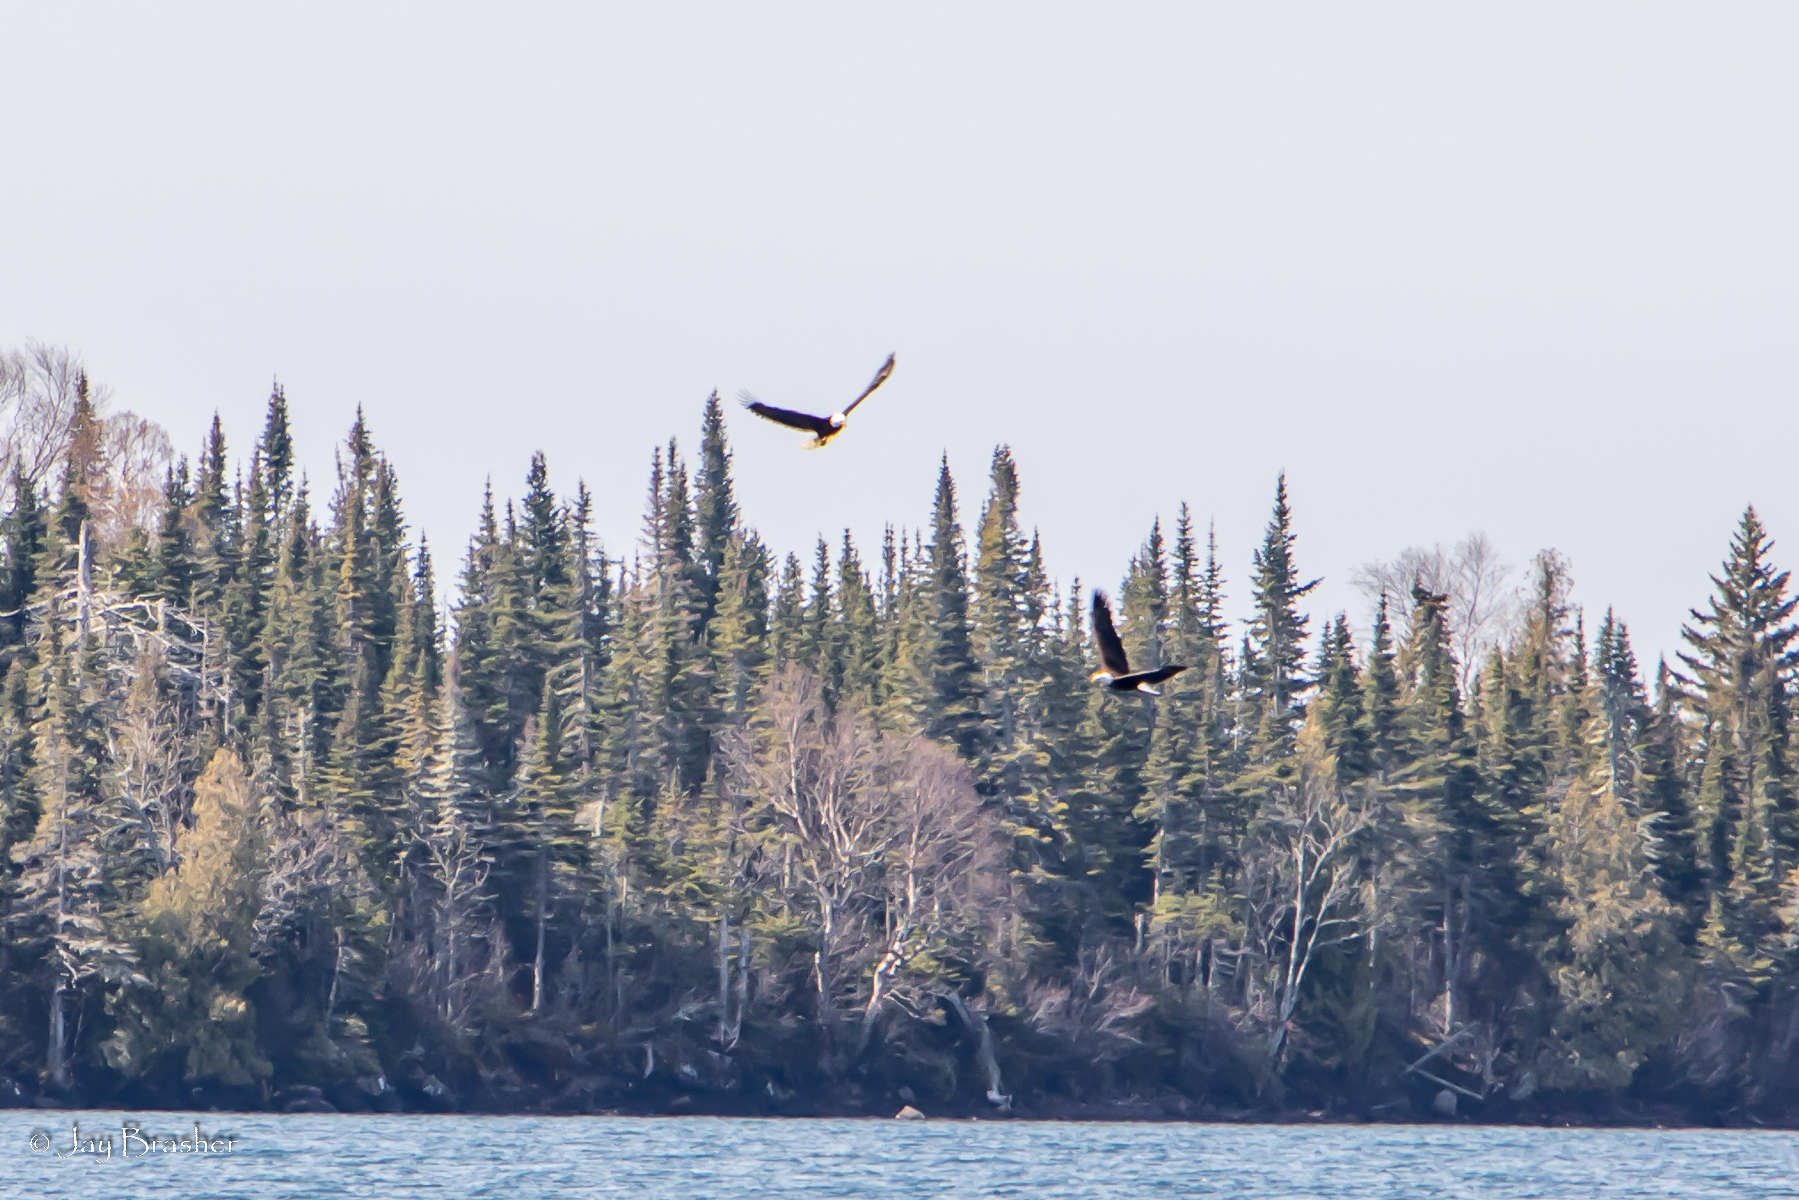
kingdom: Animalia
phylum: Chordata
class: Aves
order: Accipitriformes
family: Accipitridae
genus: Haliaeetus
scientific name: Haliaeetus leucocephalus
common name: Bald eagle
